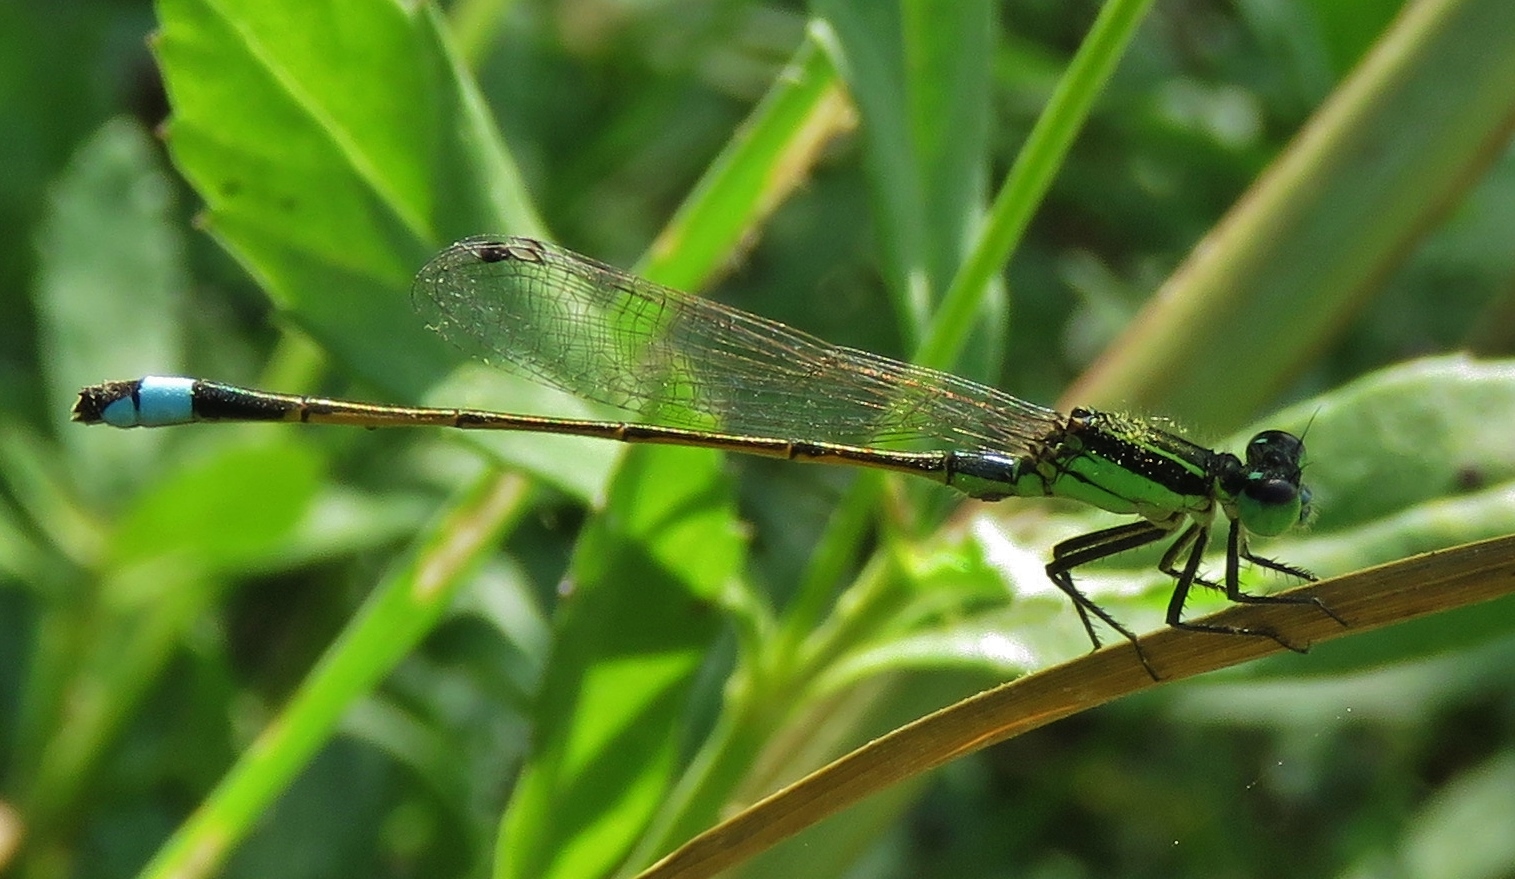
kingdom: Animalia
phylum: Arthropoda
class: Insecta
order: Odonata
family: Coenagrionidae
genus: Ischnura
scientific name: Ischnura ramburii
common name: Rambur's forktail
